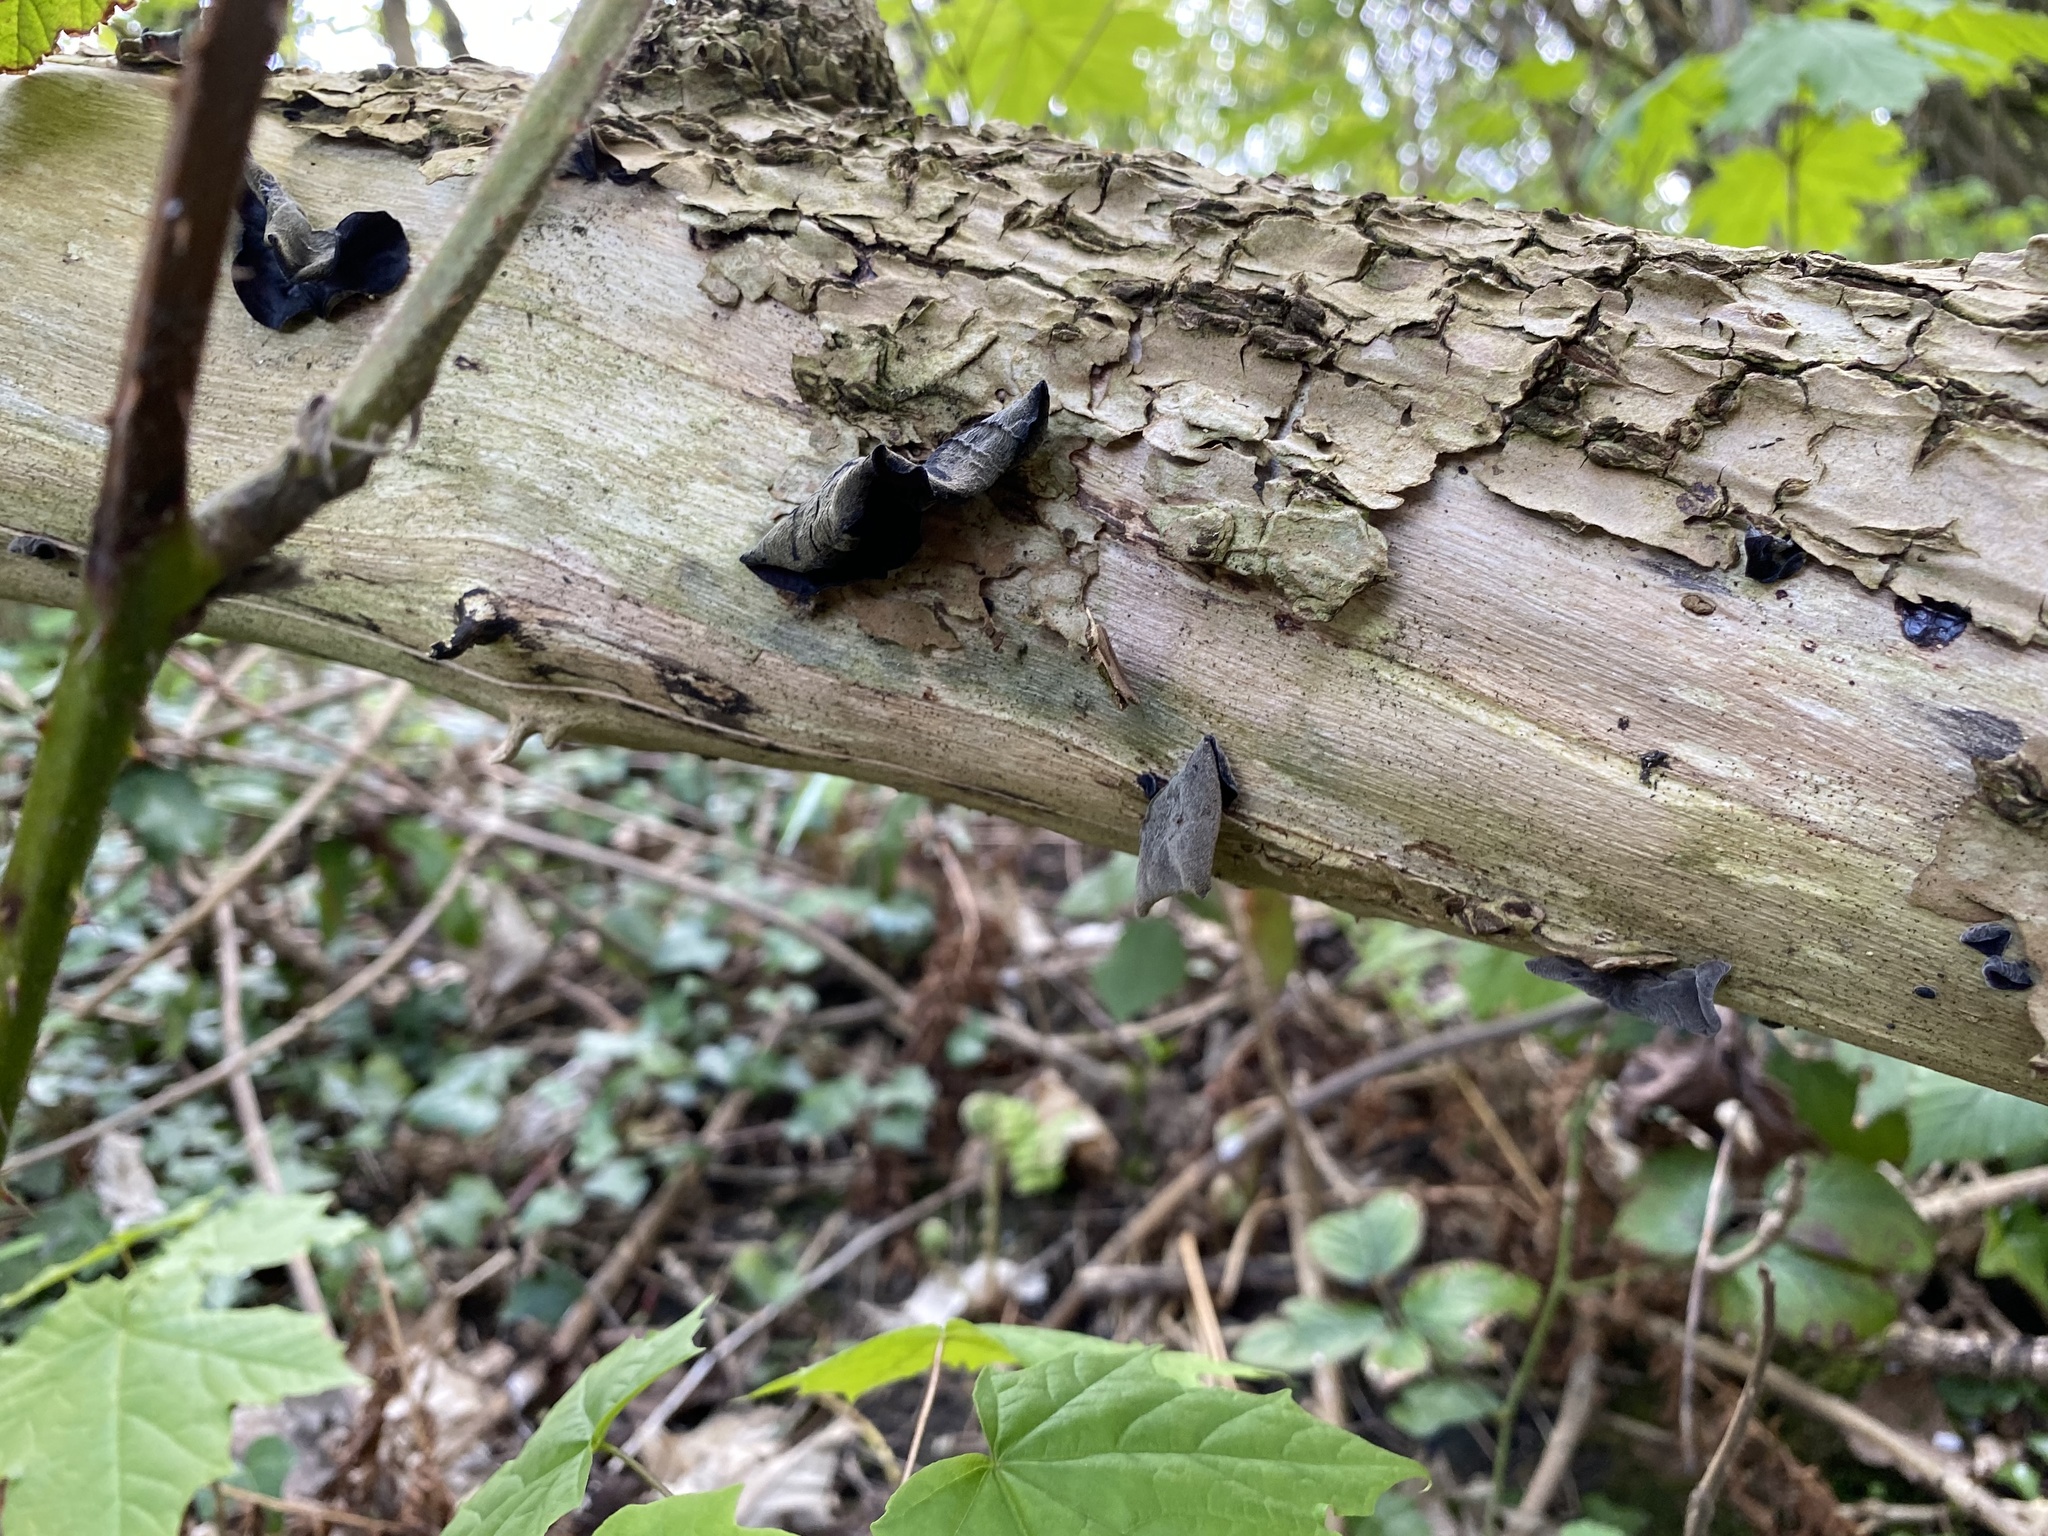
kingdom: Fungi
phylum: Basidiomycota
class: Agaricomycetes
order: Auriculariales
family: Auriculariaceae
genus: Auricularia
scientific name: Auricularia auricula-judae
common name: Jelly ear
